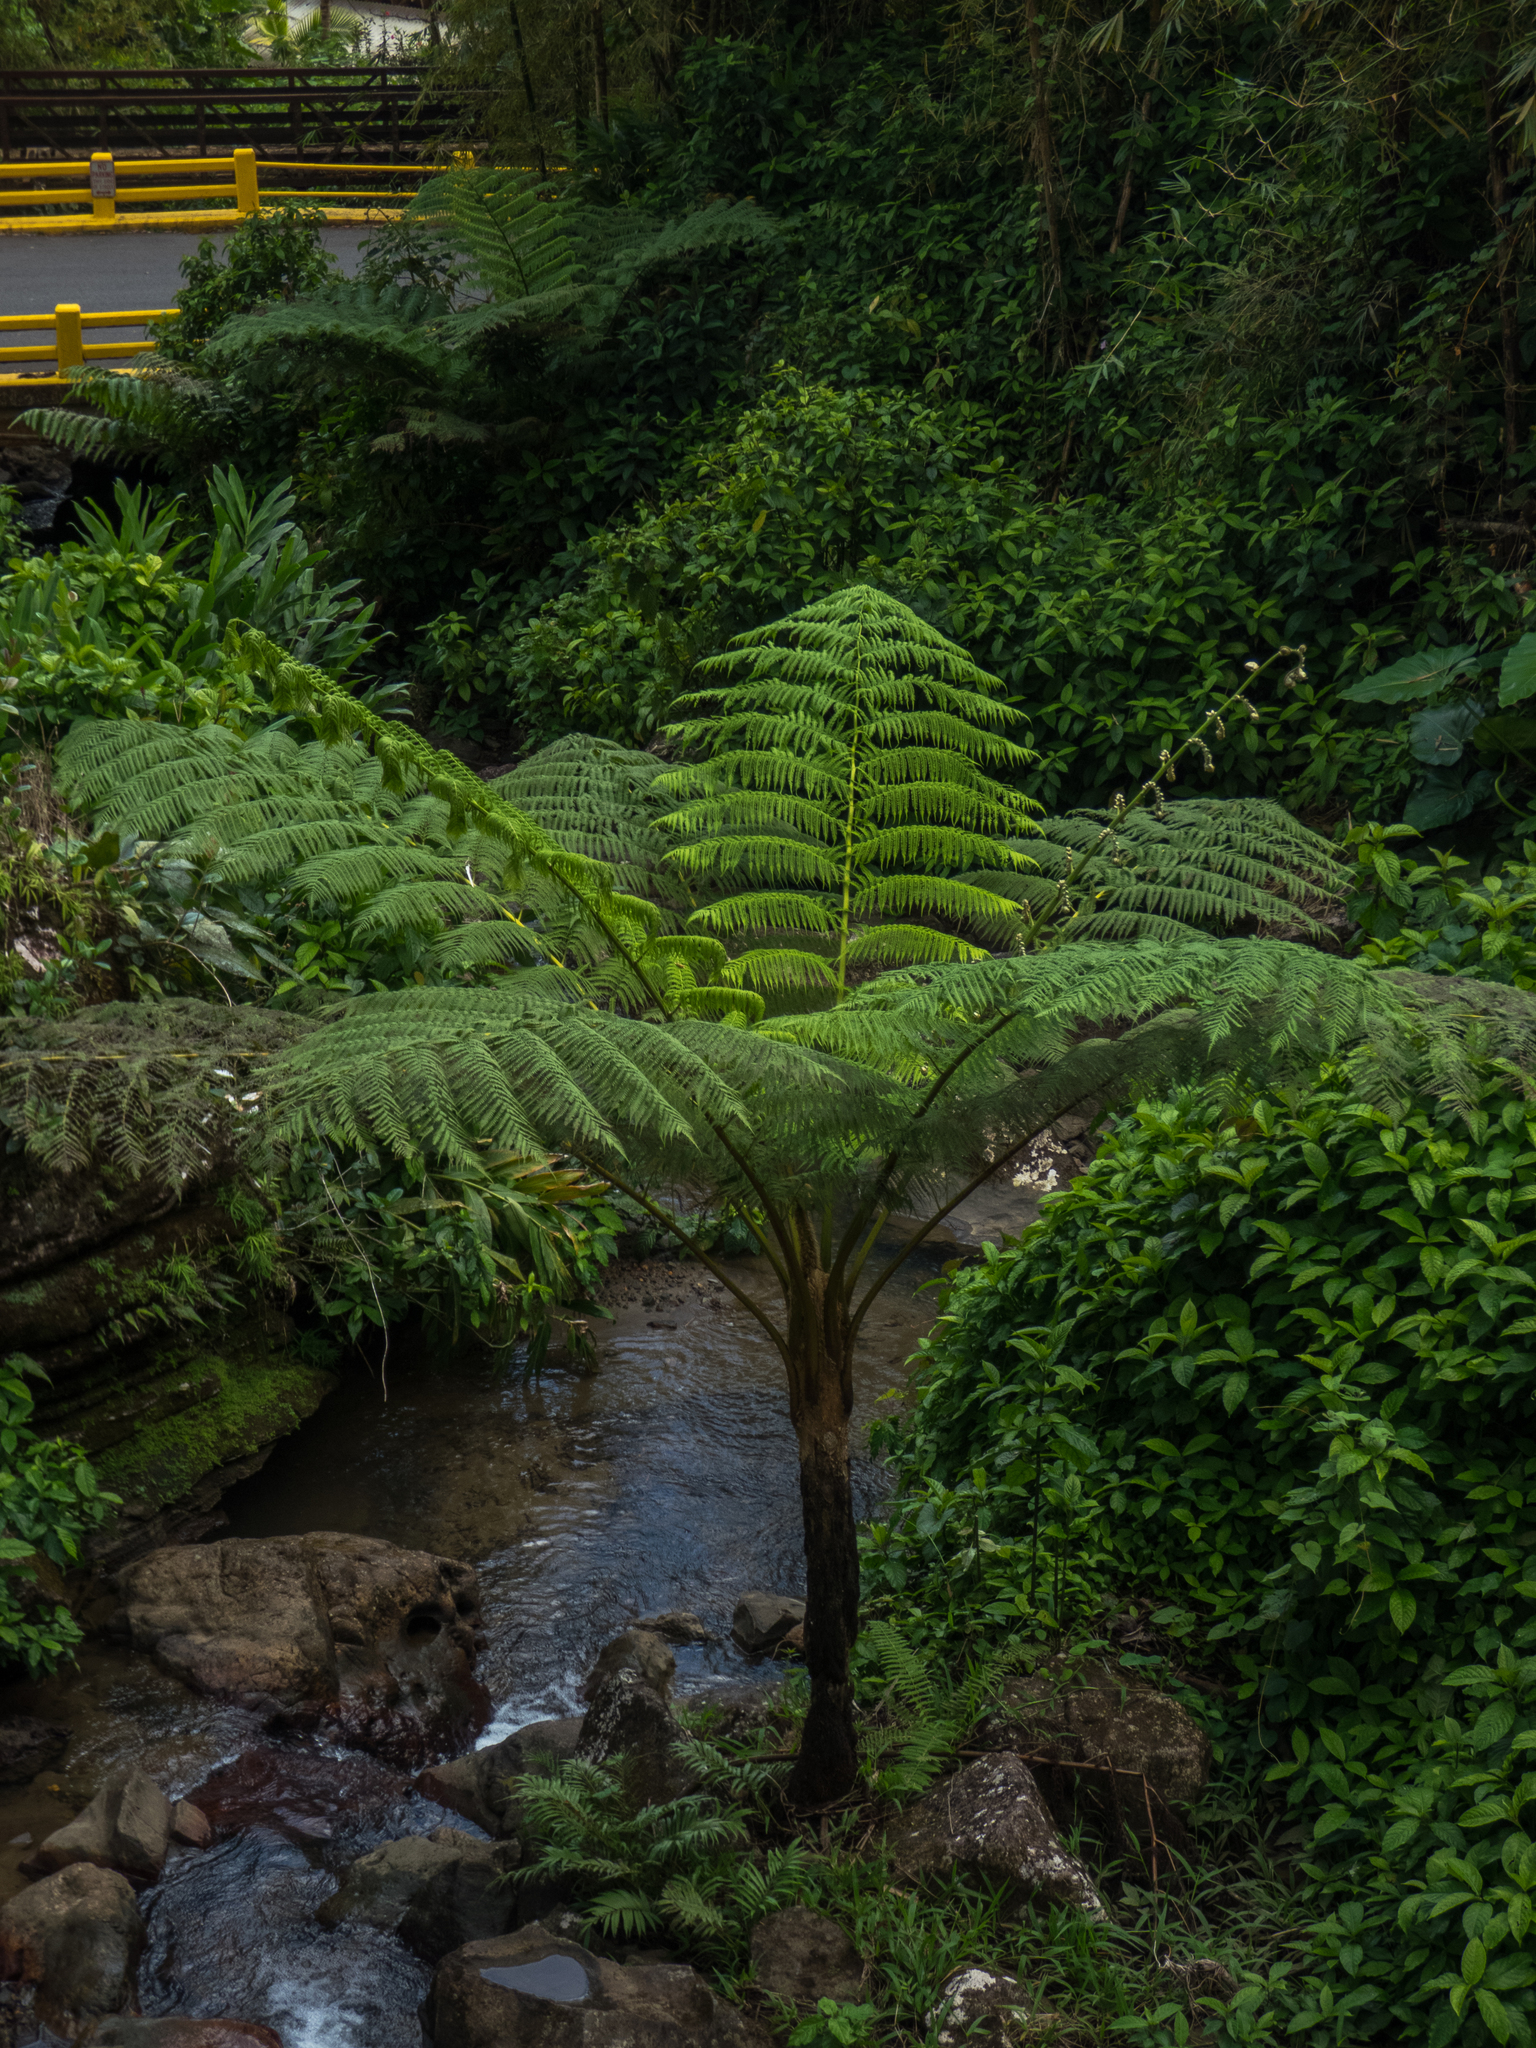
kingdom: Plantae
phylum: Tracheophyta
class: Polypodiopsida
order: Cyatheales
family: Cyatheaceae
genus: Cyathea
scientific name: Cyathea arborea
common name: West indian treefern
